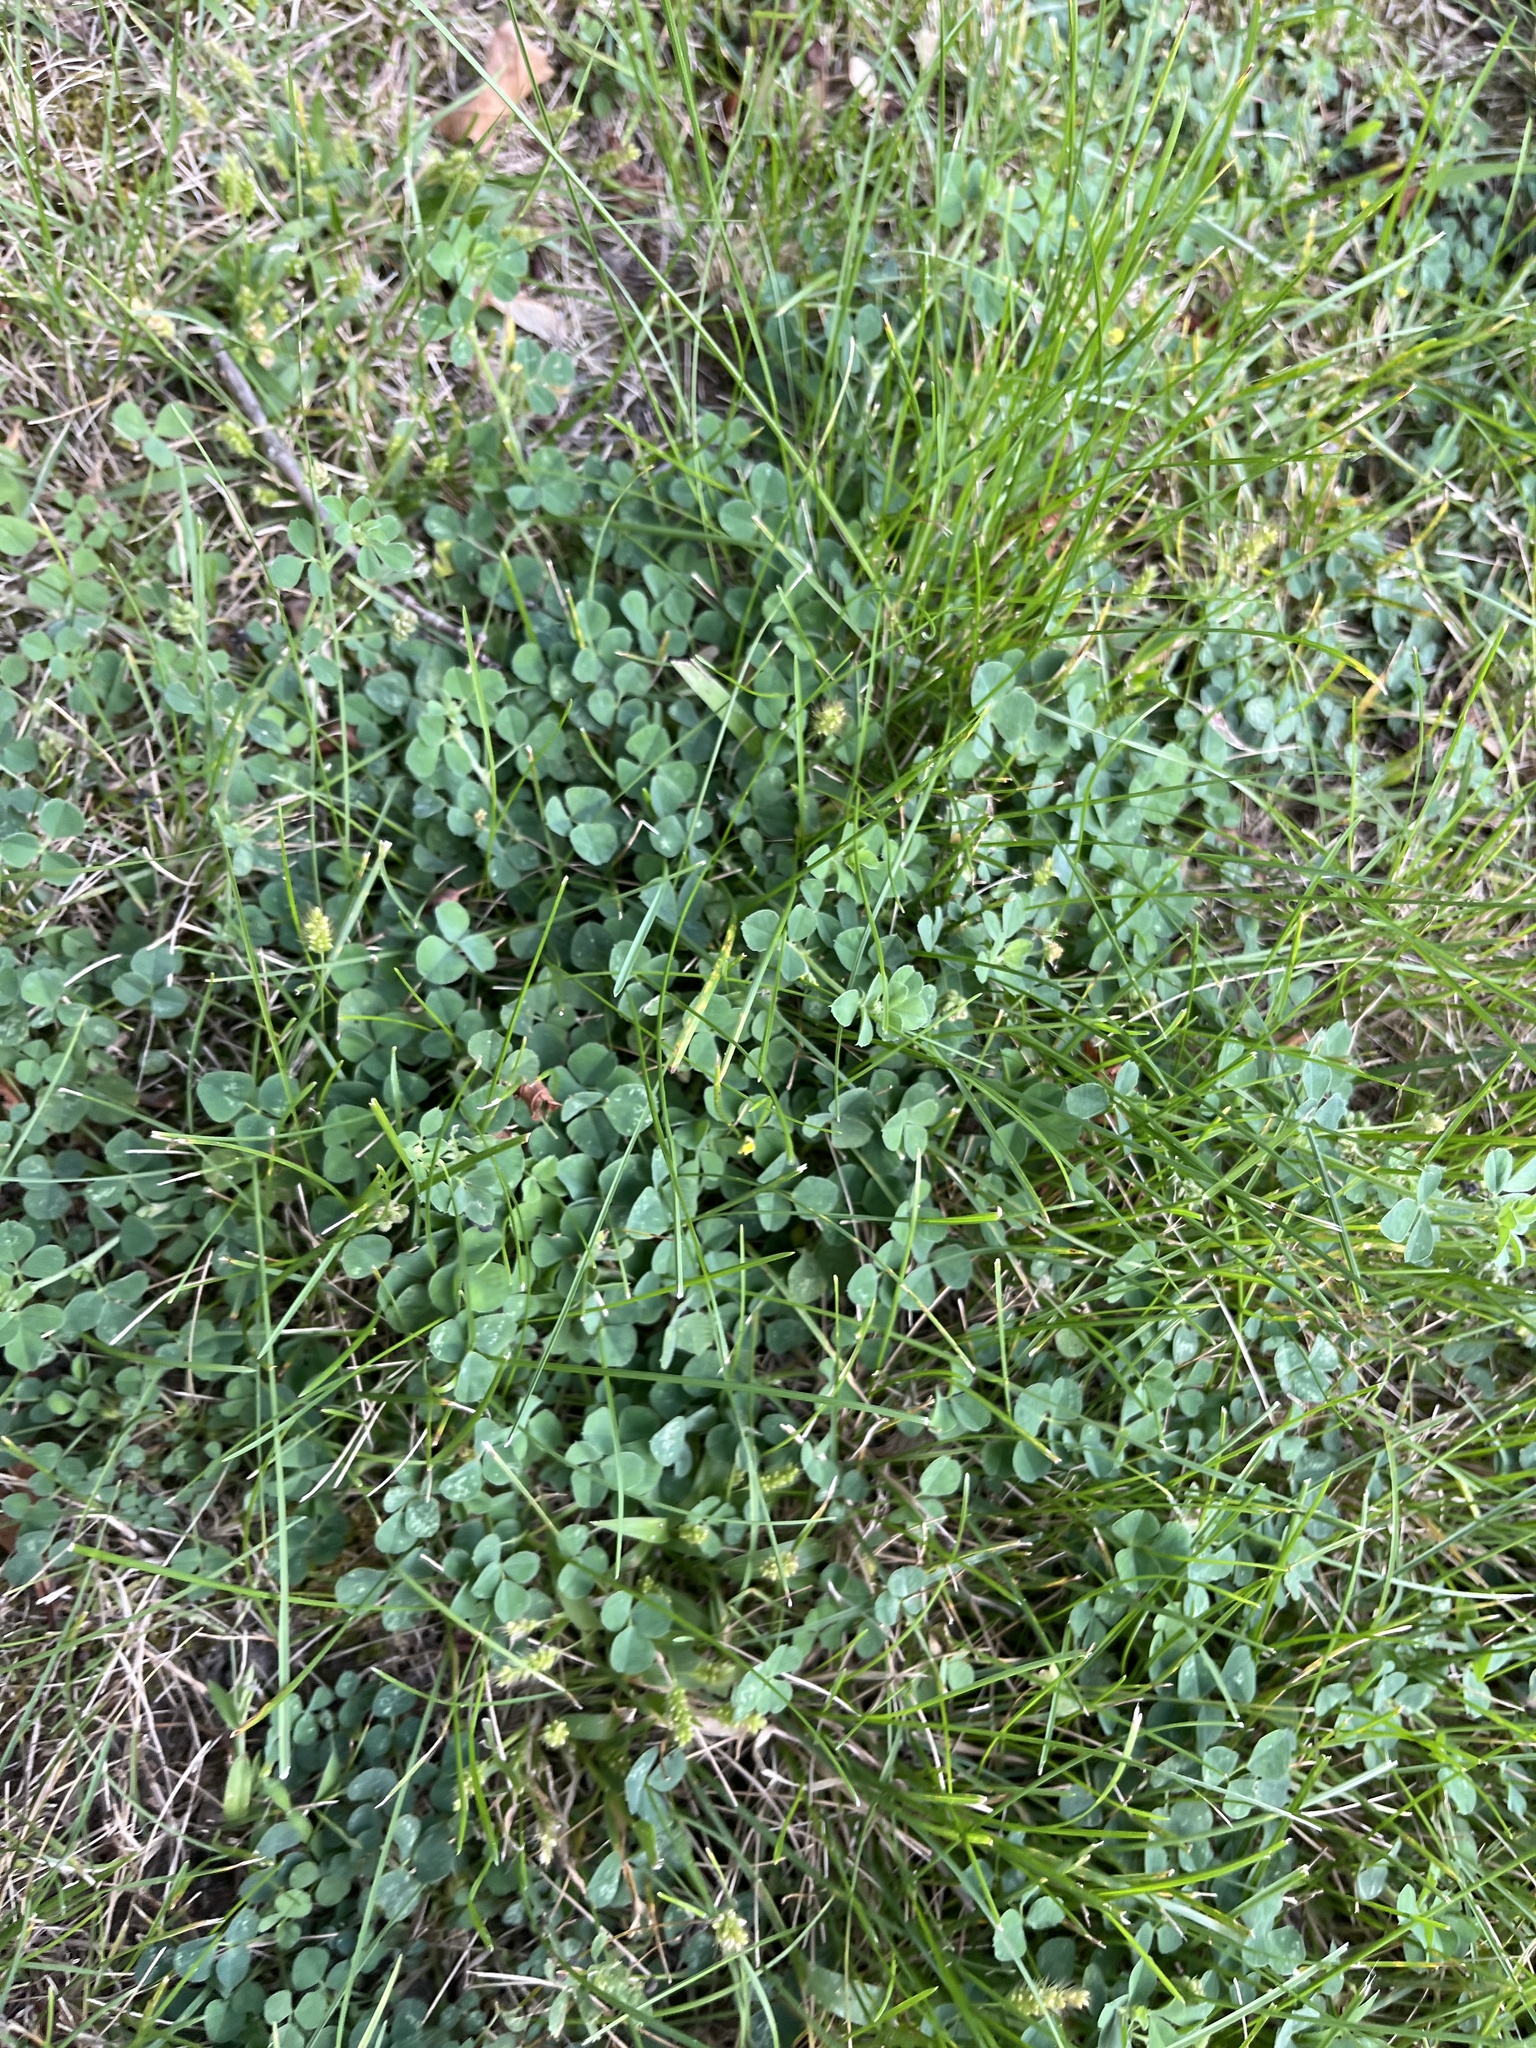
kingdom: Plantae
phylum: Tracheophyta
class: Magnoliopsida
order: Fabales
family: Fabaceae
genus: Medicago
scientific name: Medicago lupulina
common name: Black medick
